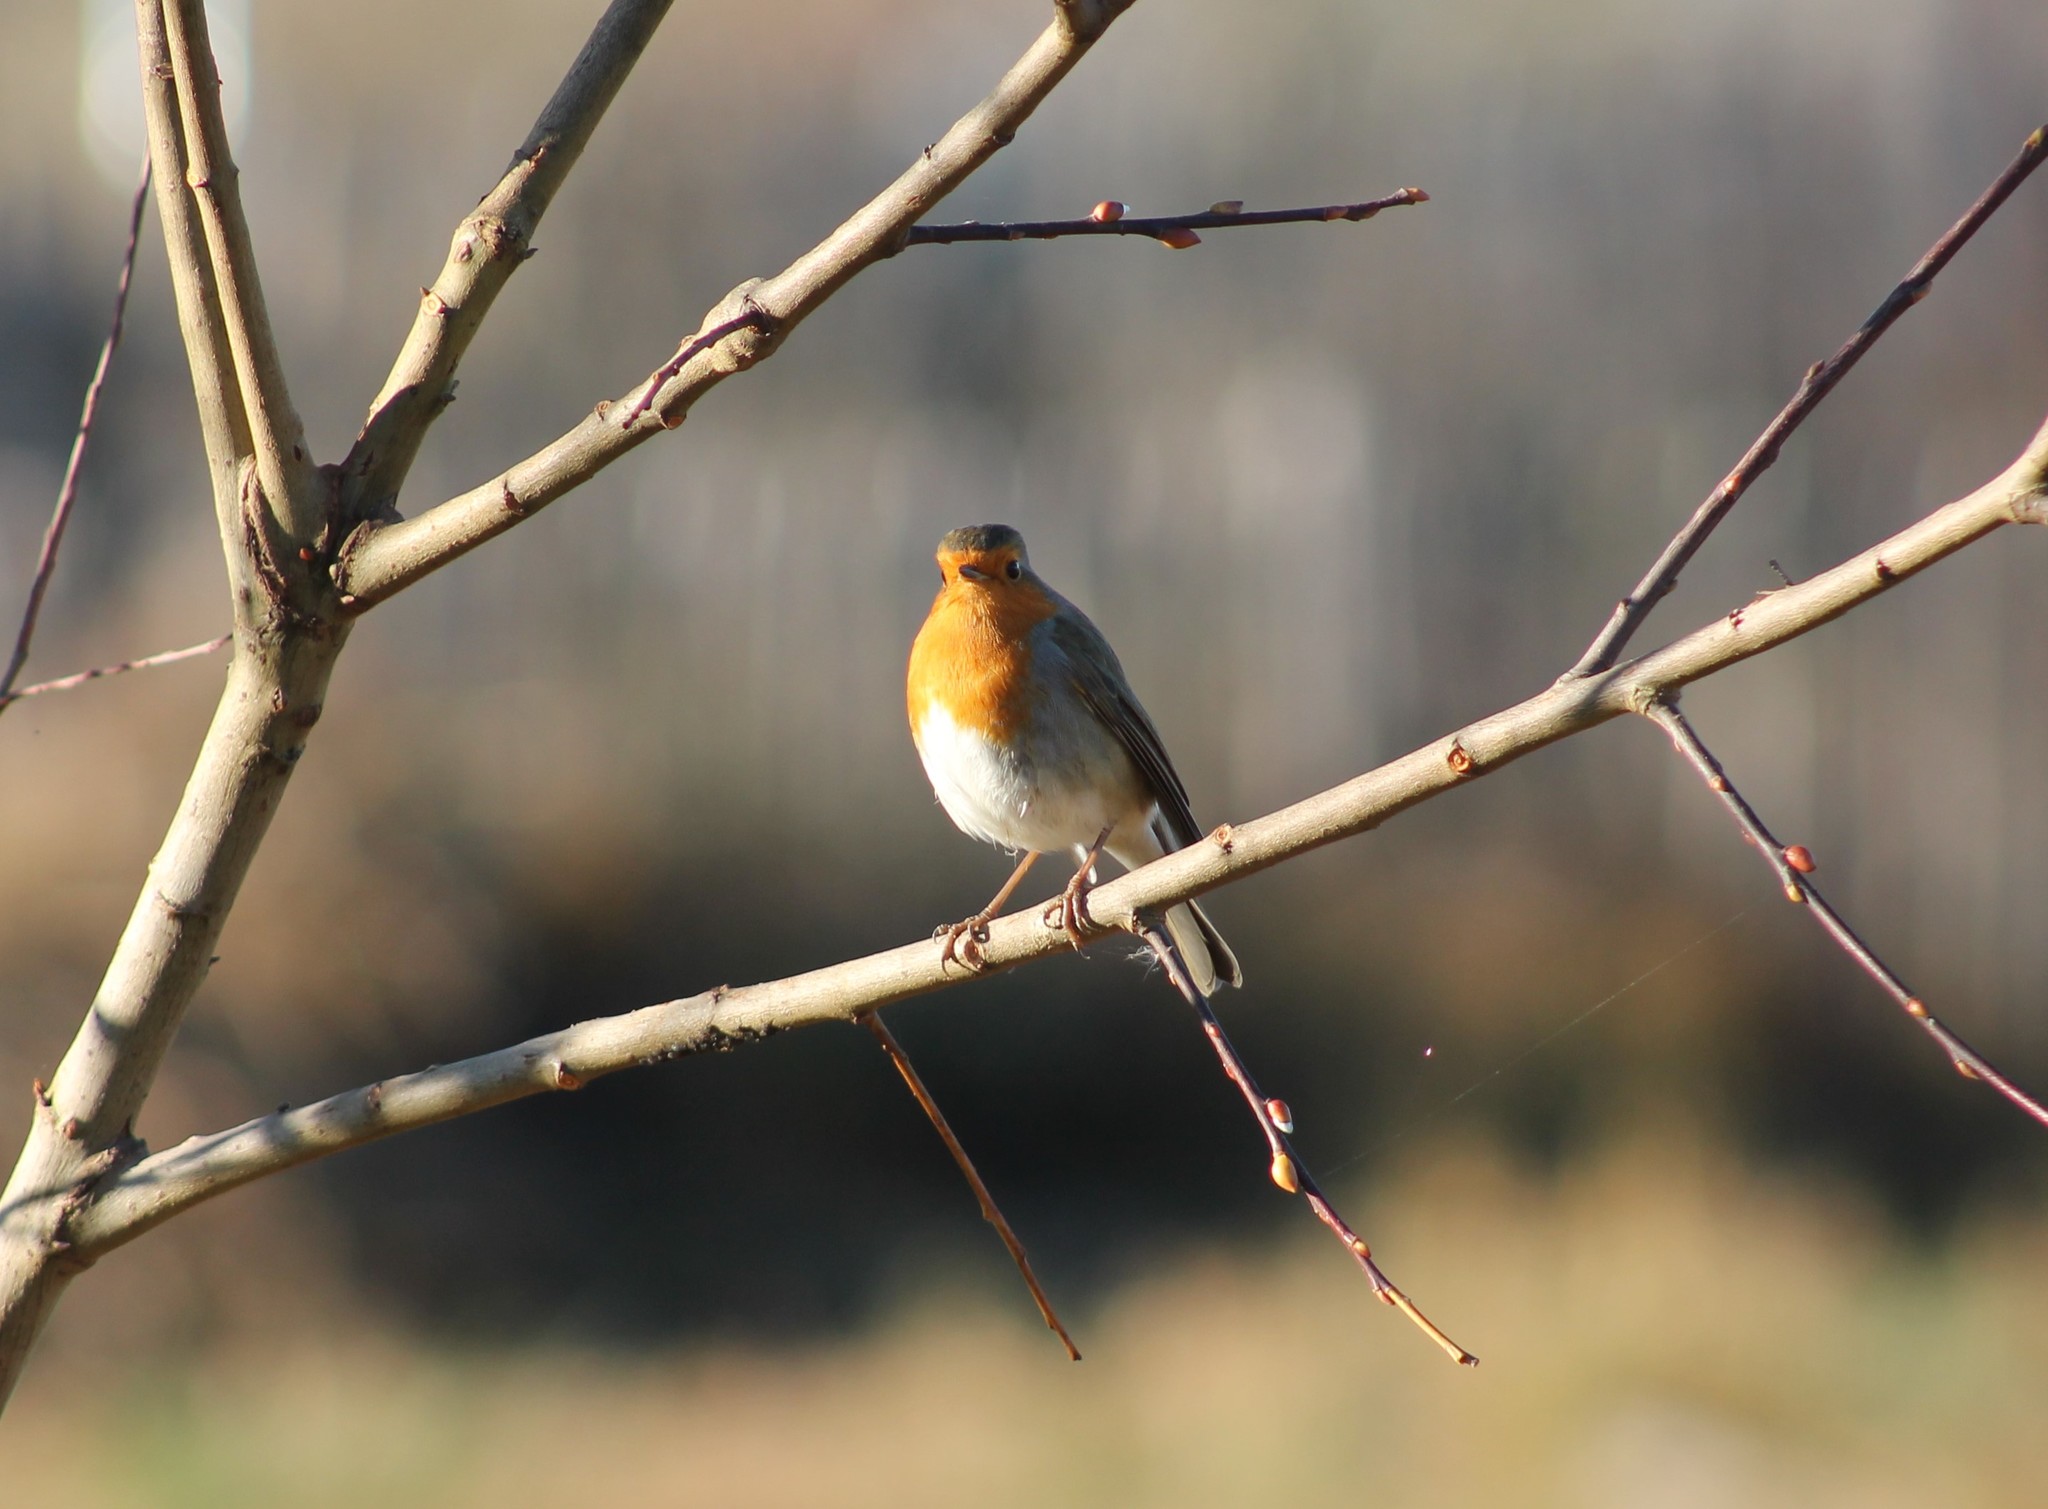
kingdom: Animalia
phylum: Chordata
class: Aves
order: Passeriformes
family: Muscicapidae
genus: Erithacus
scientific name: Erithacus rubecula
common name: European robin
